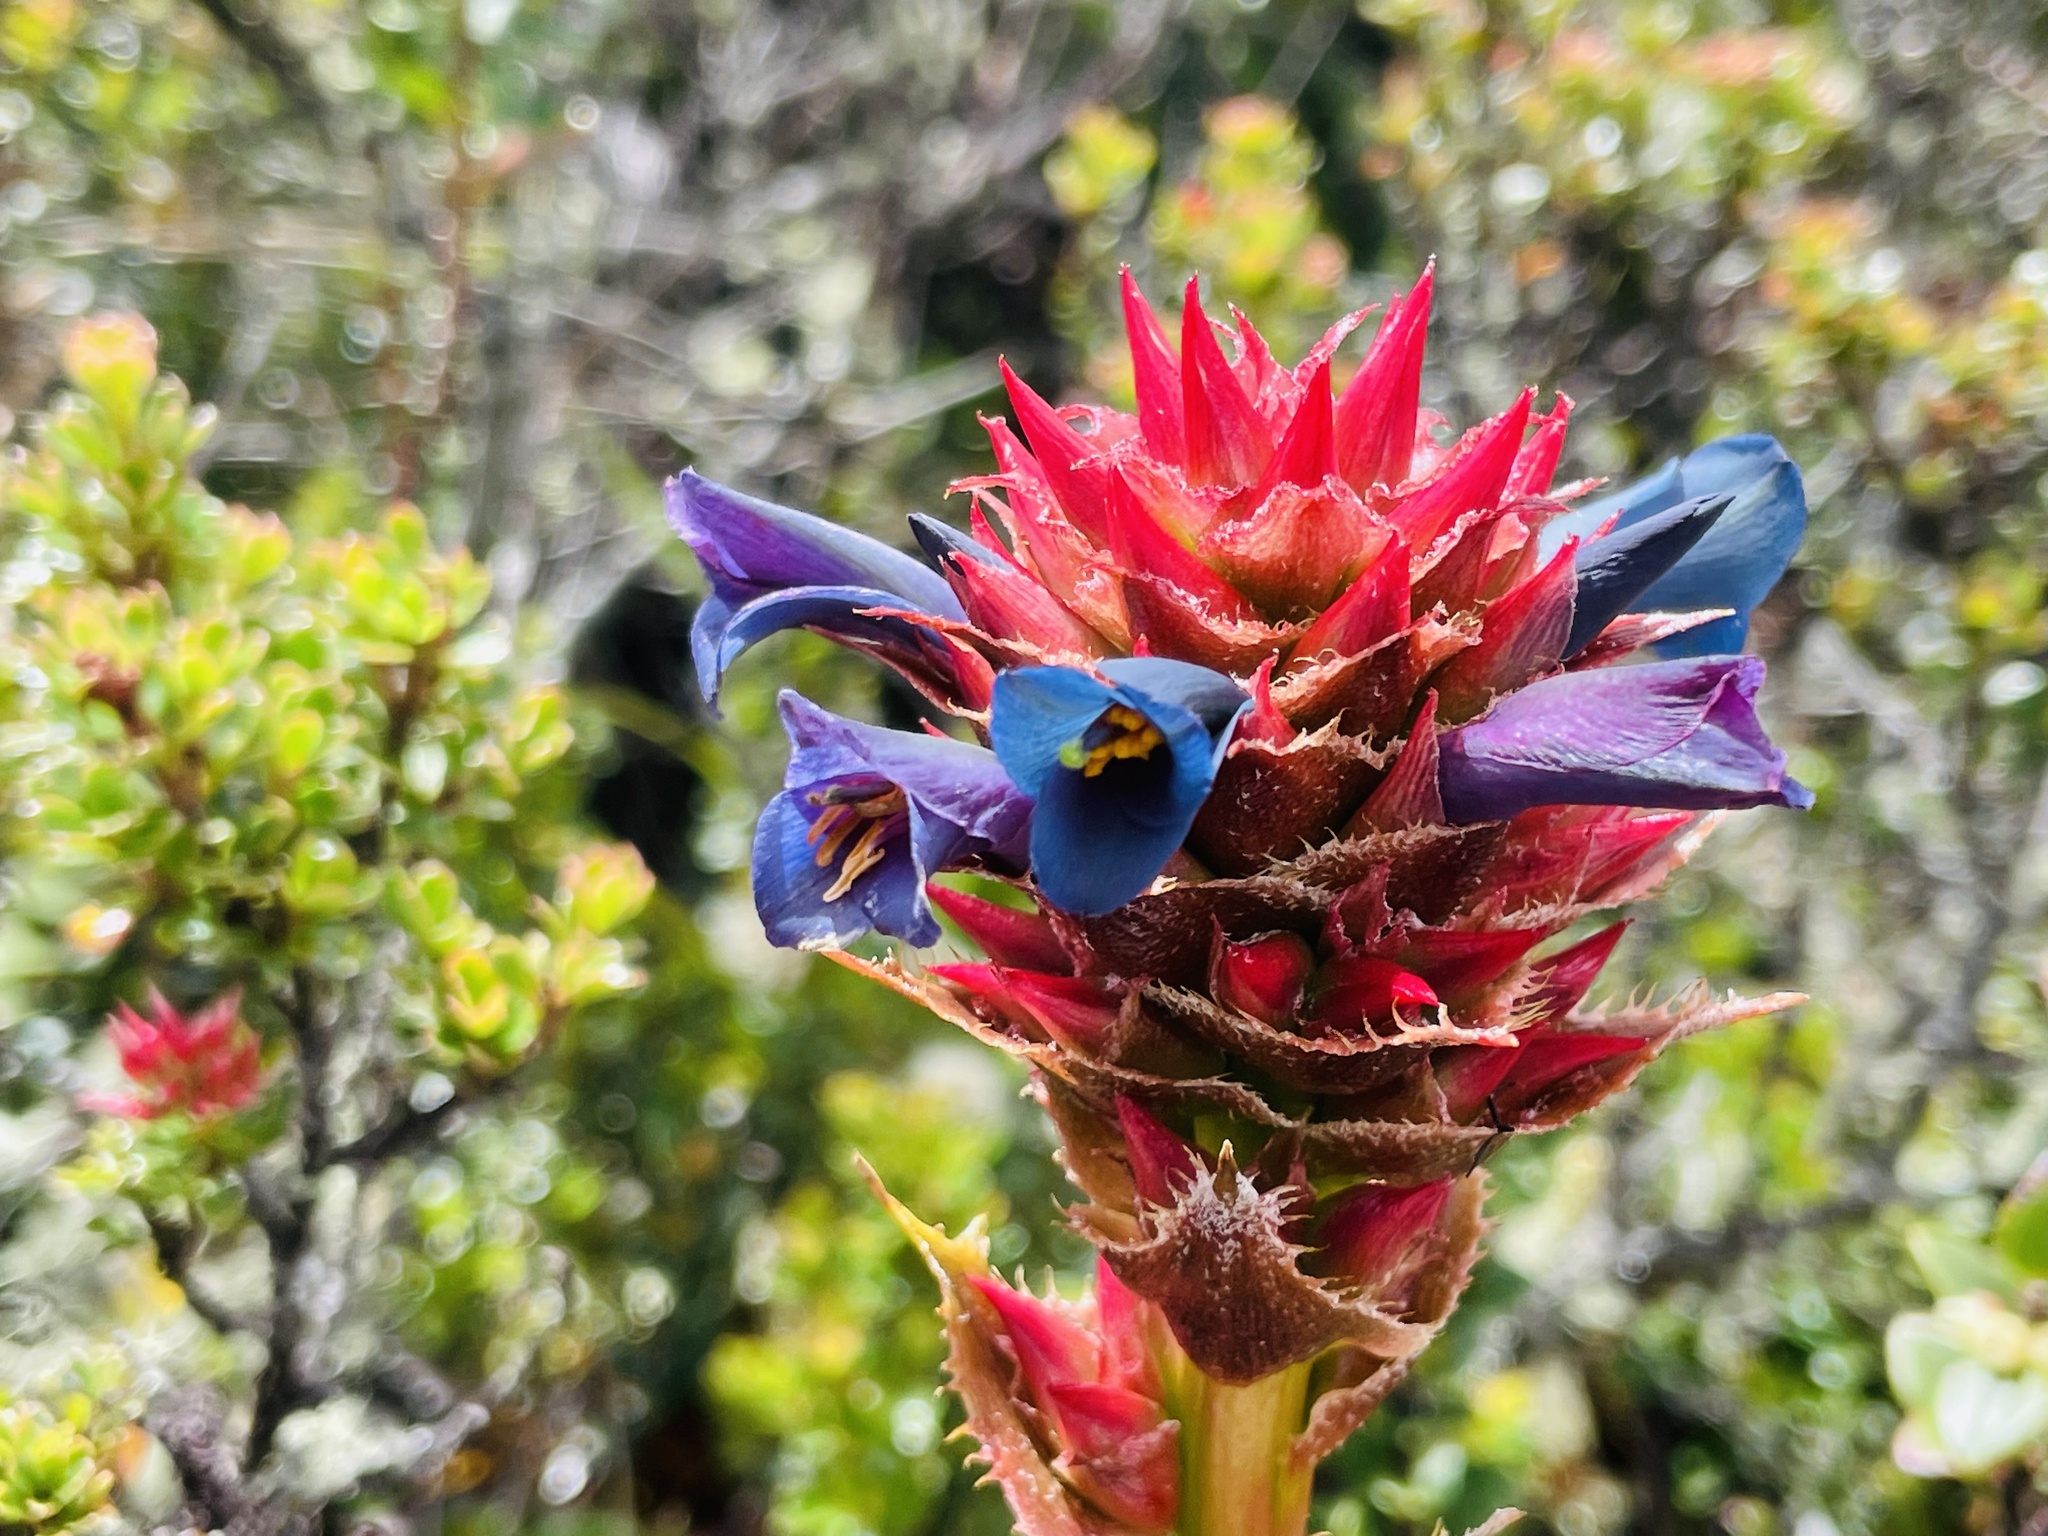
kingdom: Plantae
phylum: Tracheophyta
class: Liliopsida
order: Poales
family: Bromeliaceae
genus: Puya
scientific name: Puya eryngioides
